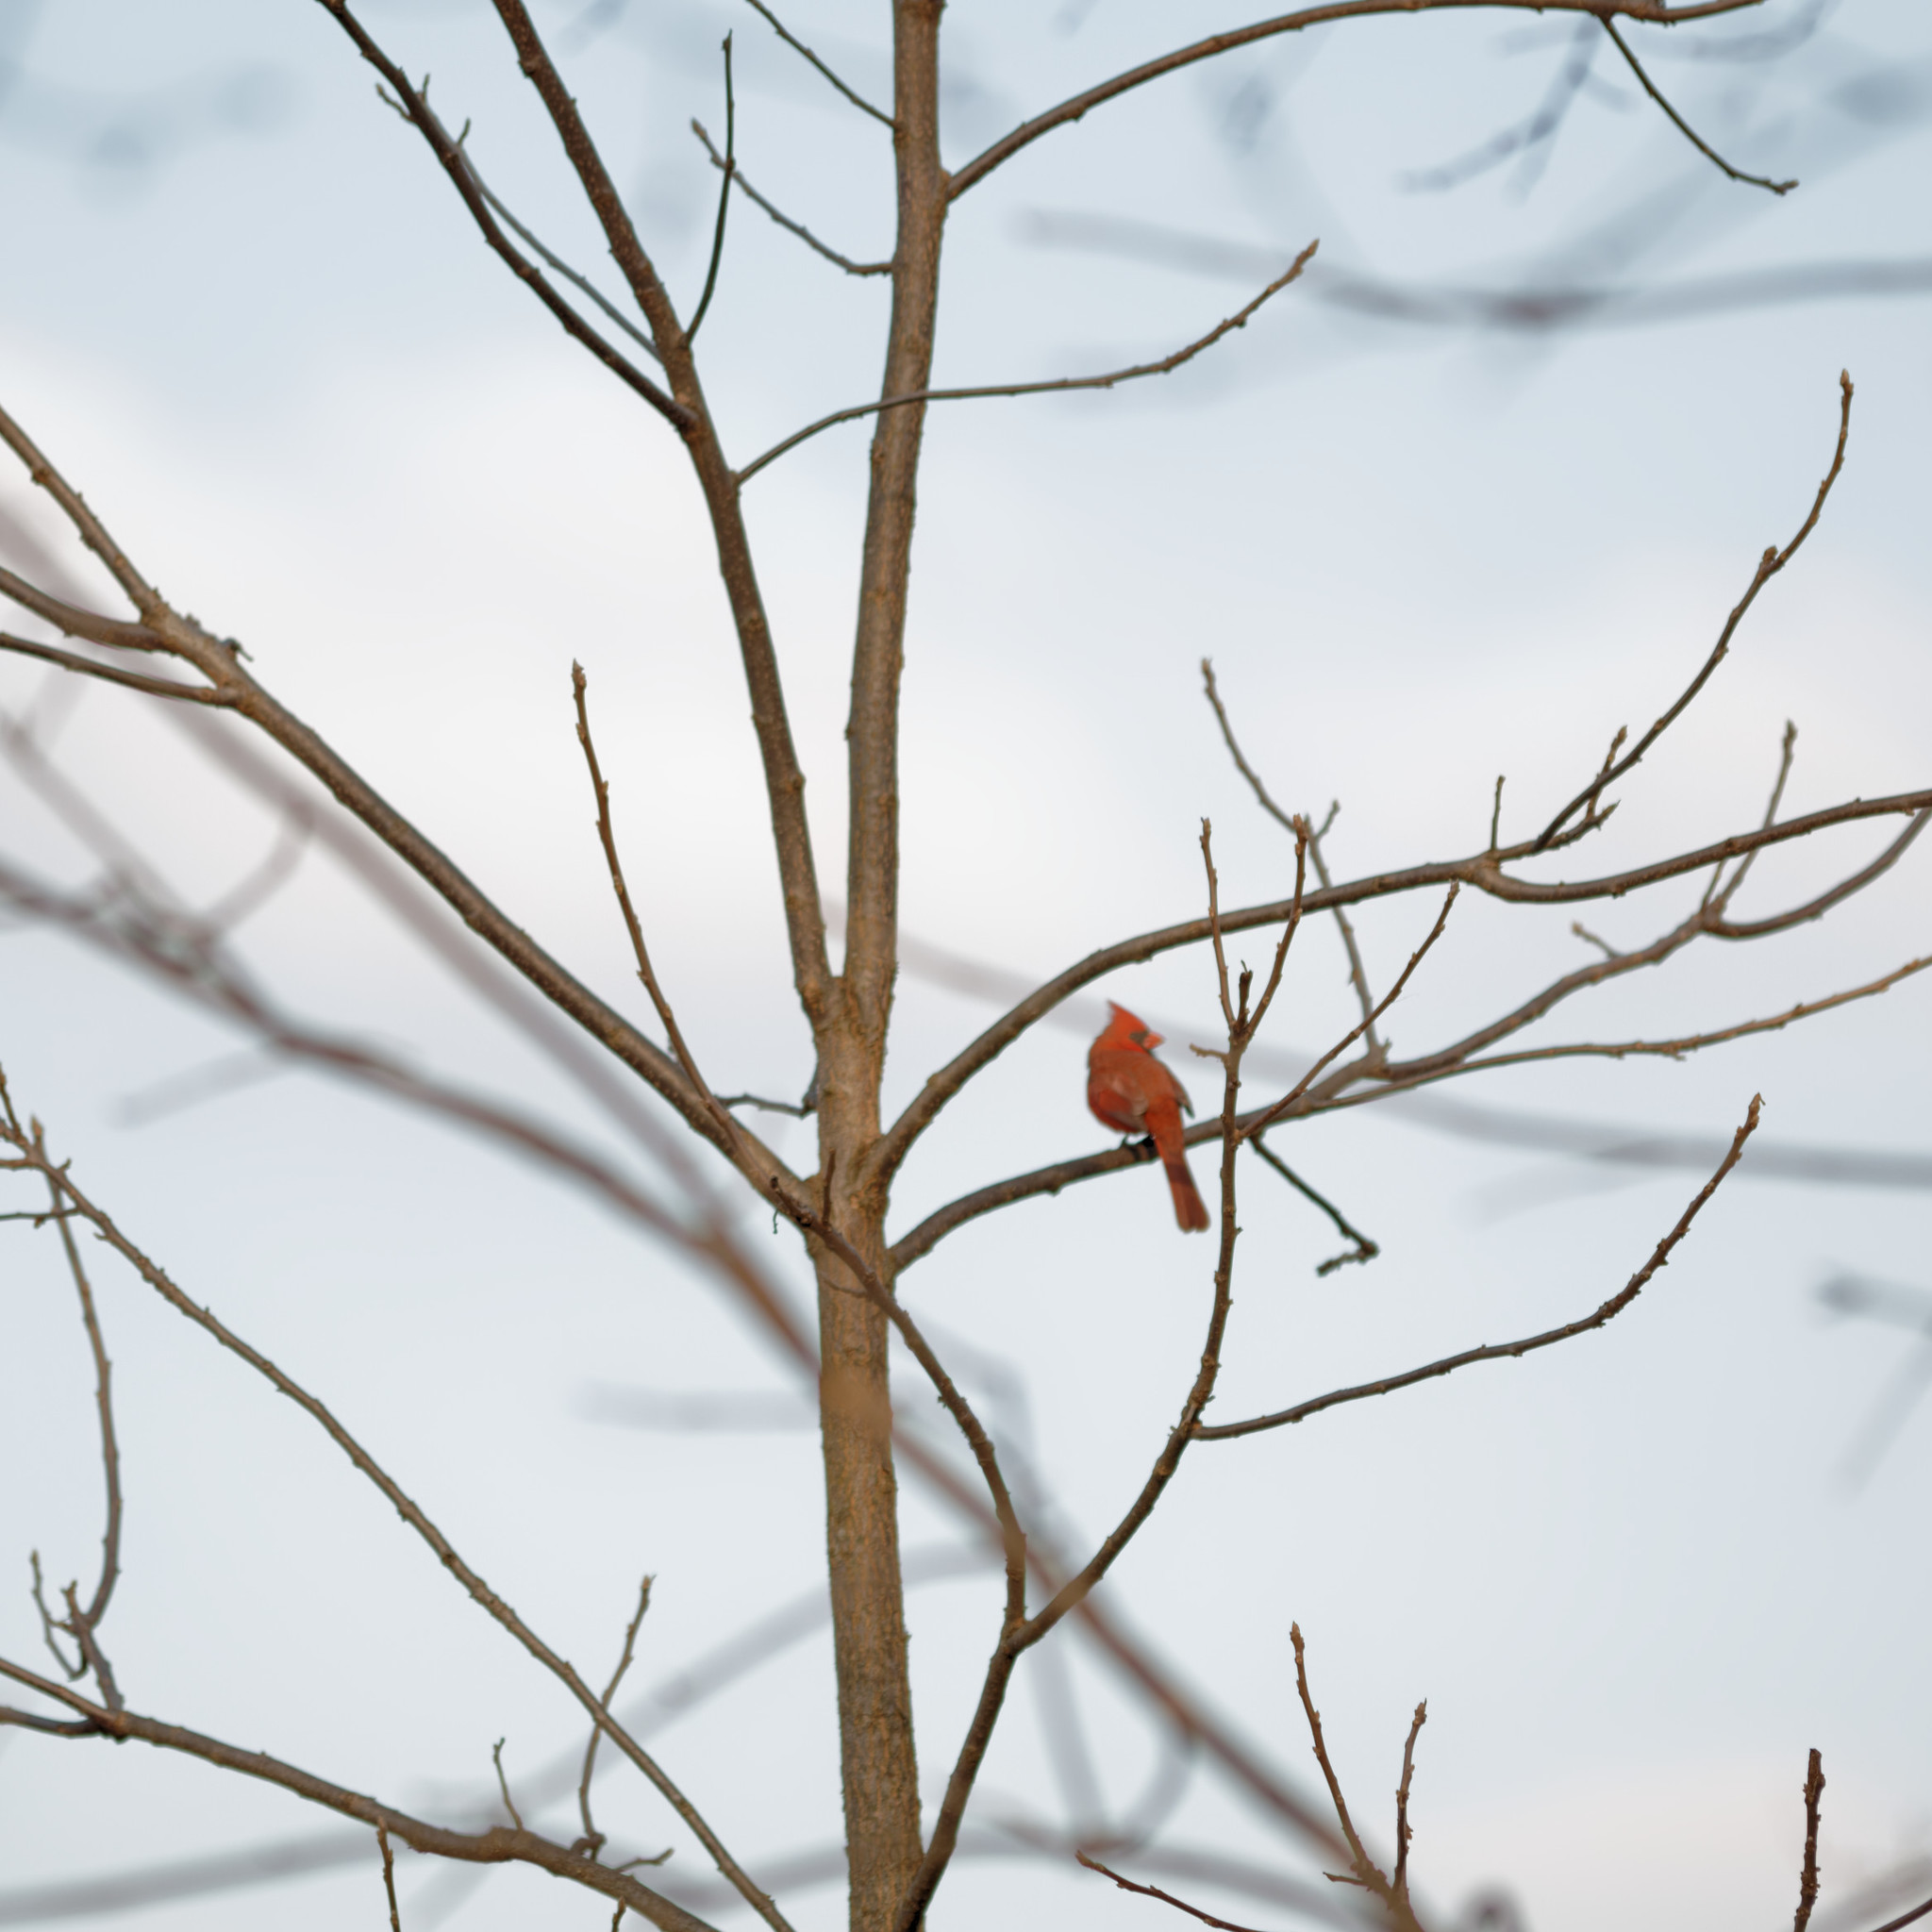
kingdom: Animalia
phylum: Chordata
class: Aves
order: Passeriformes
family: Cardinalidae
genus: Cardinalis
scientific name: Cardinalis cardinalis
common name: Northern cardinal
